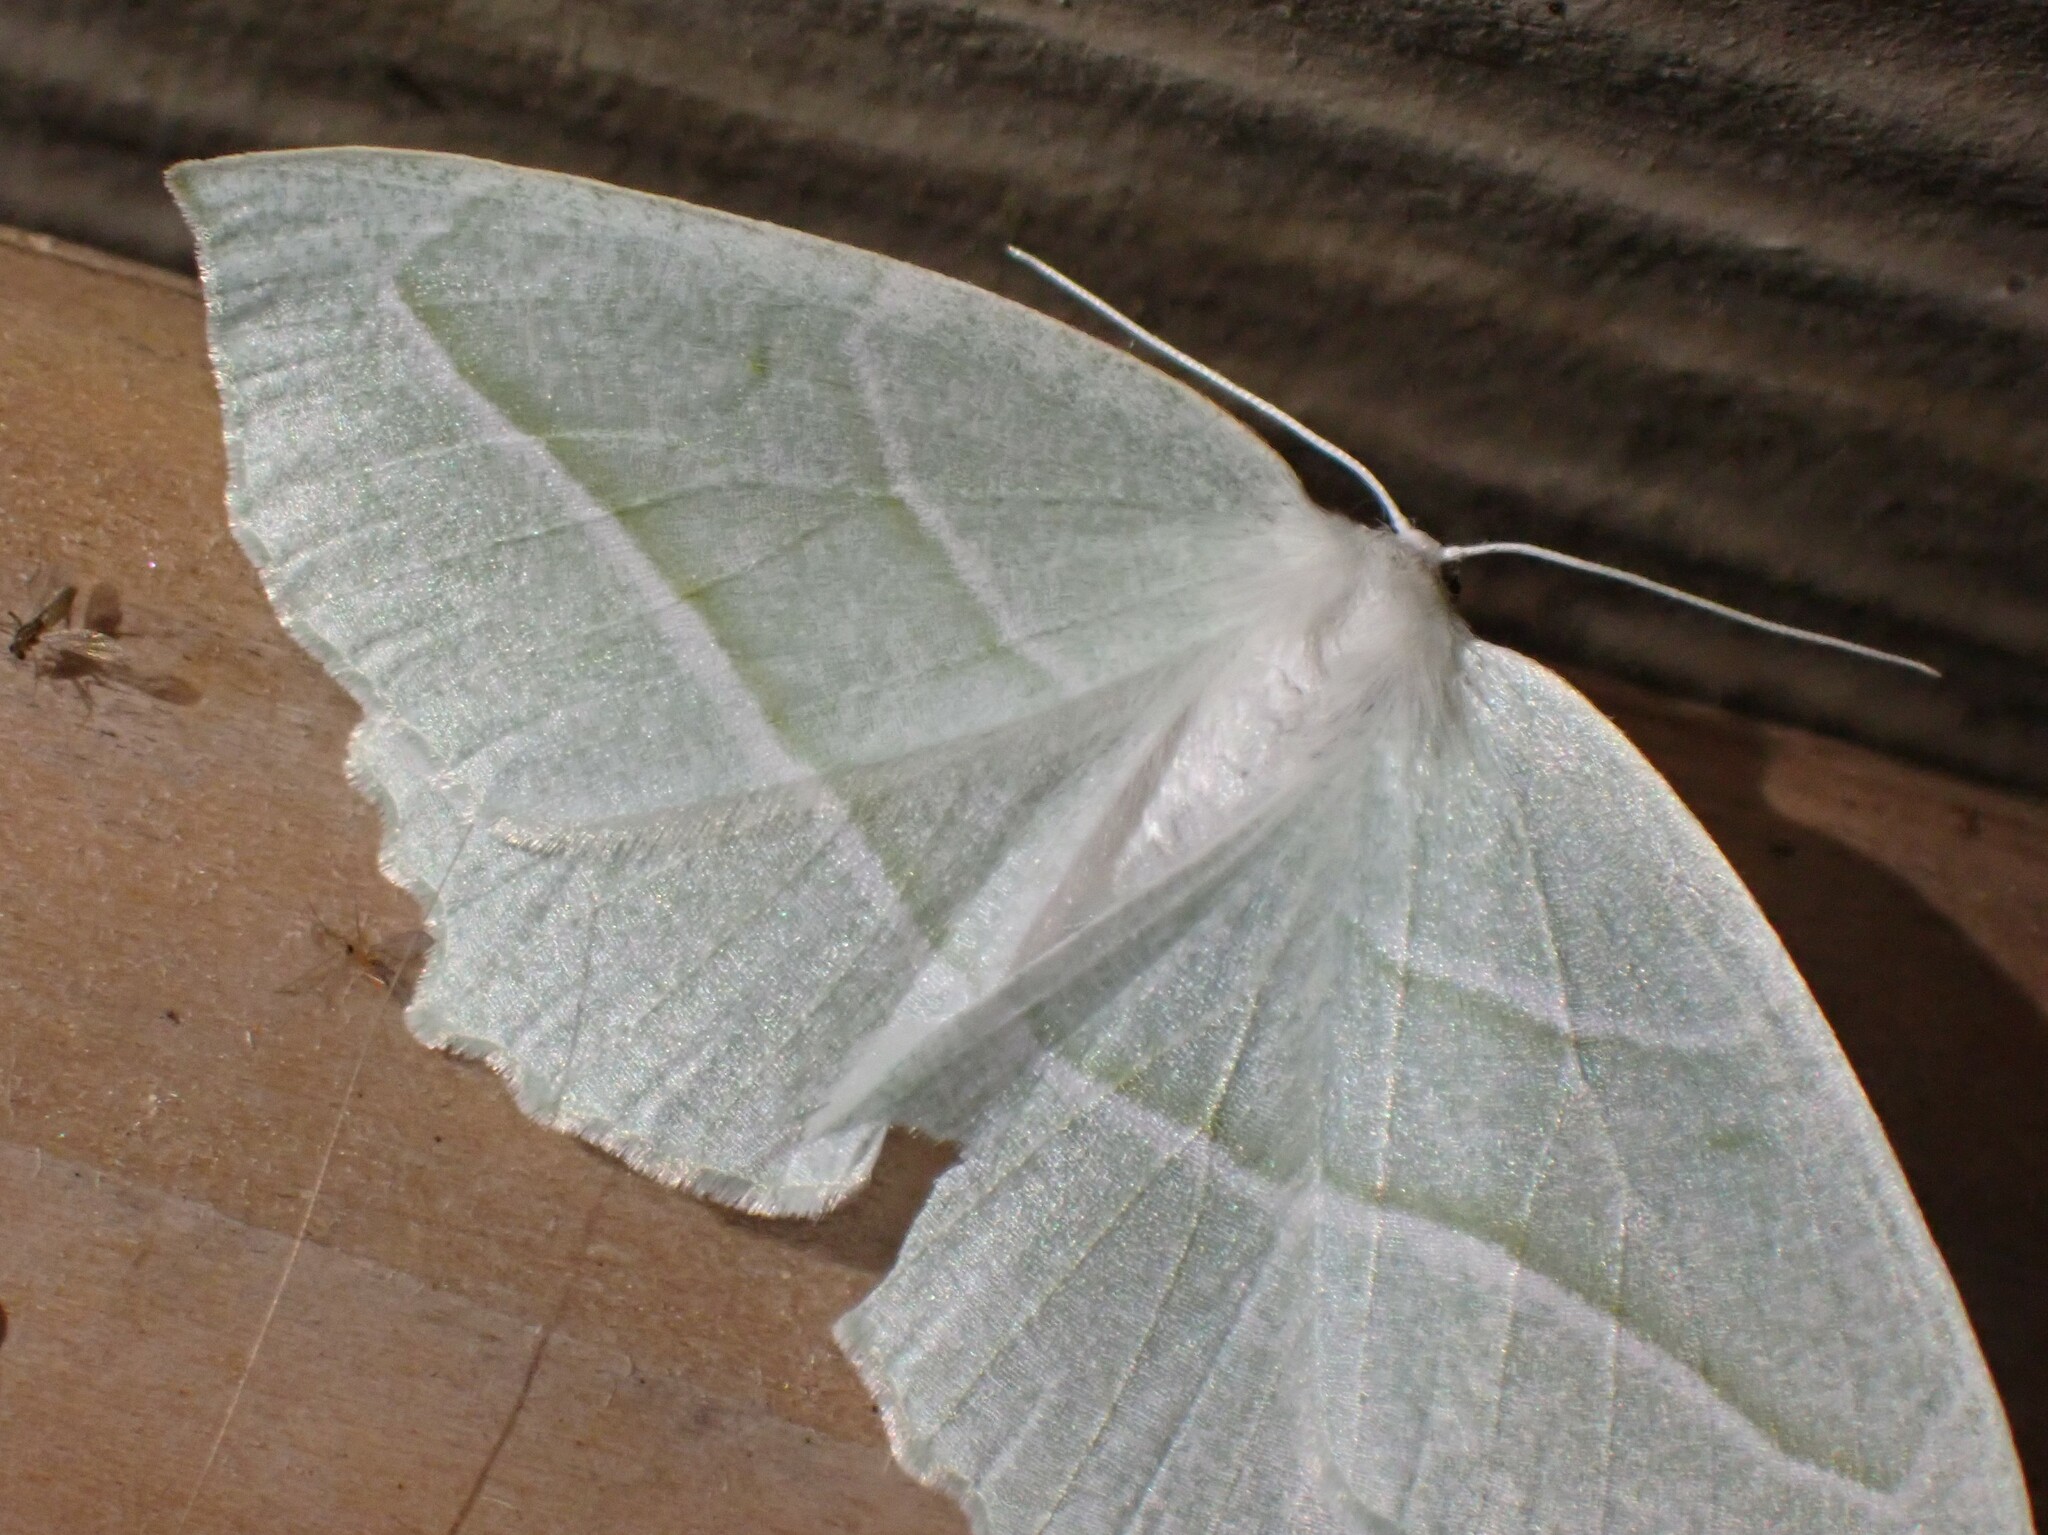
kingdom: Animalia
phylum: Arthropoda
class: Insecta
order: Lepidoptera
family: Geometridae
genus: Campaea
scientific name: Campaea perlata
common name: Fringed looper
